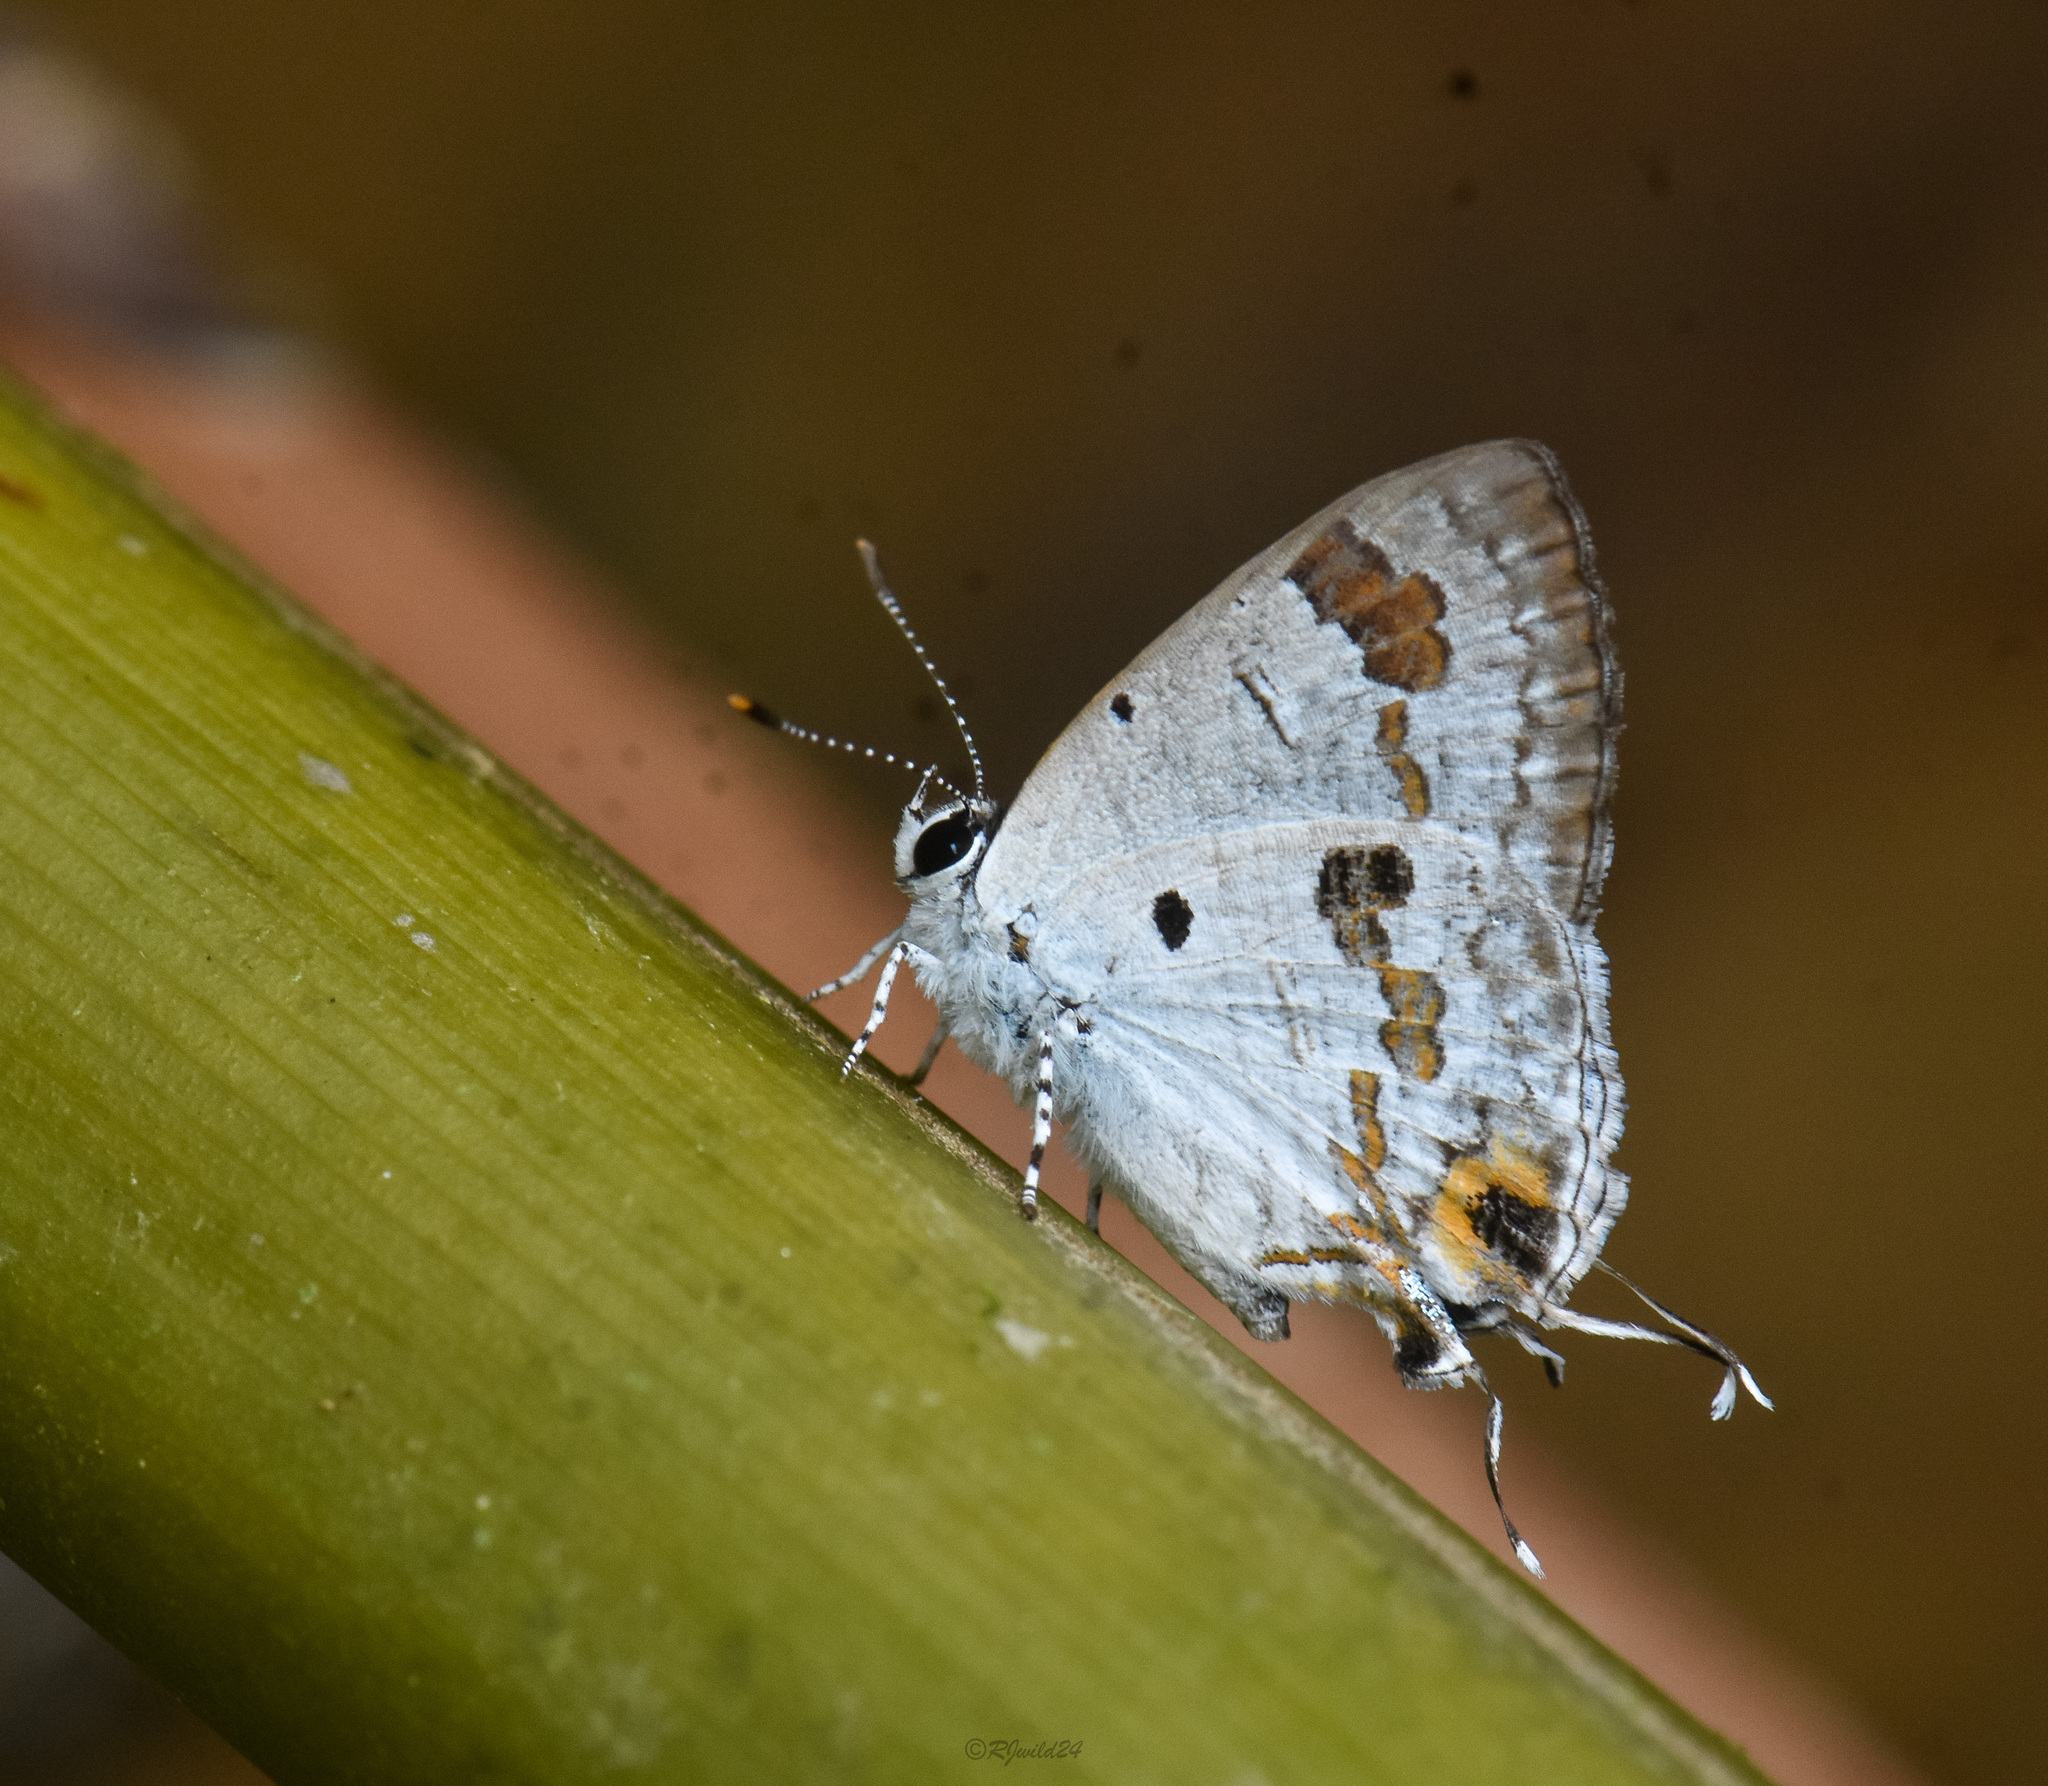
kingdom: Animalia
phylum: Arthropoda
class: Insecta
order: Lepidoptera
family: Lycaenidae
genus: Chliaria
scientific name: Chliaria othona
